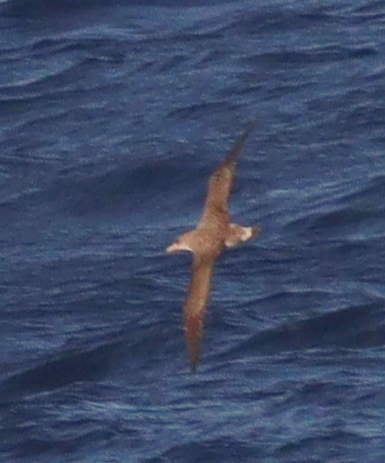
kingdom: Animalia
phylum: Chordata
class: Aves
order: Procellariiformes
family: Procellariidae
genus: Calonectris
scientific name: Calonectris diomedea
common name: Cory's shearwater
